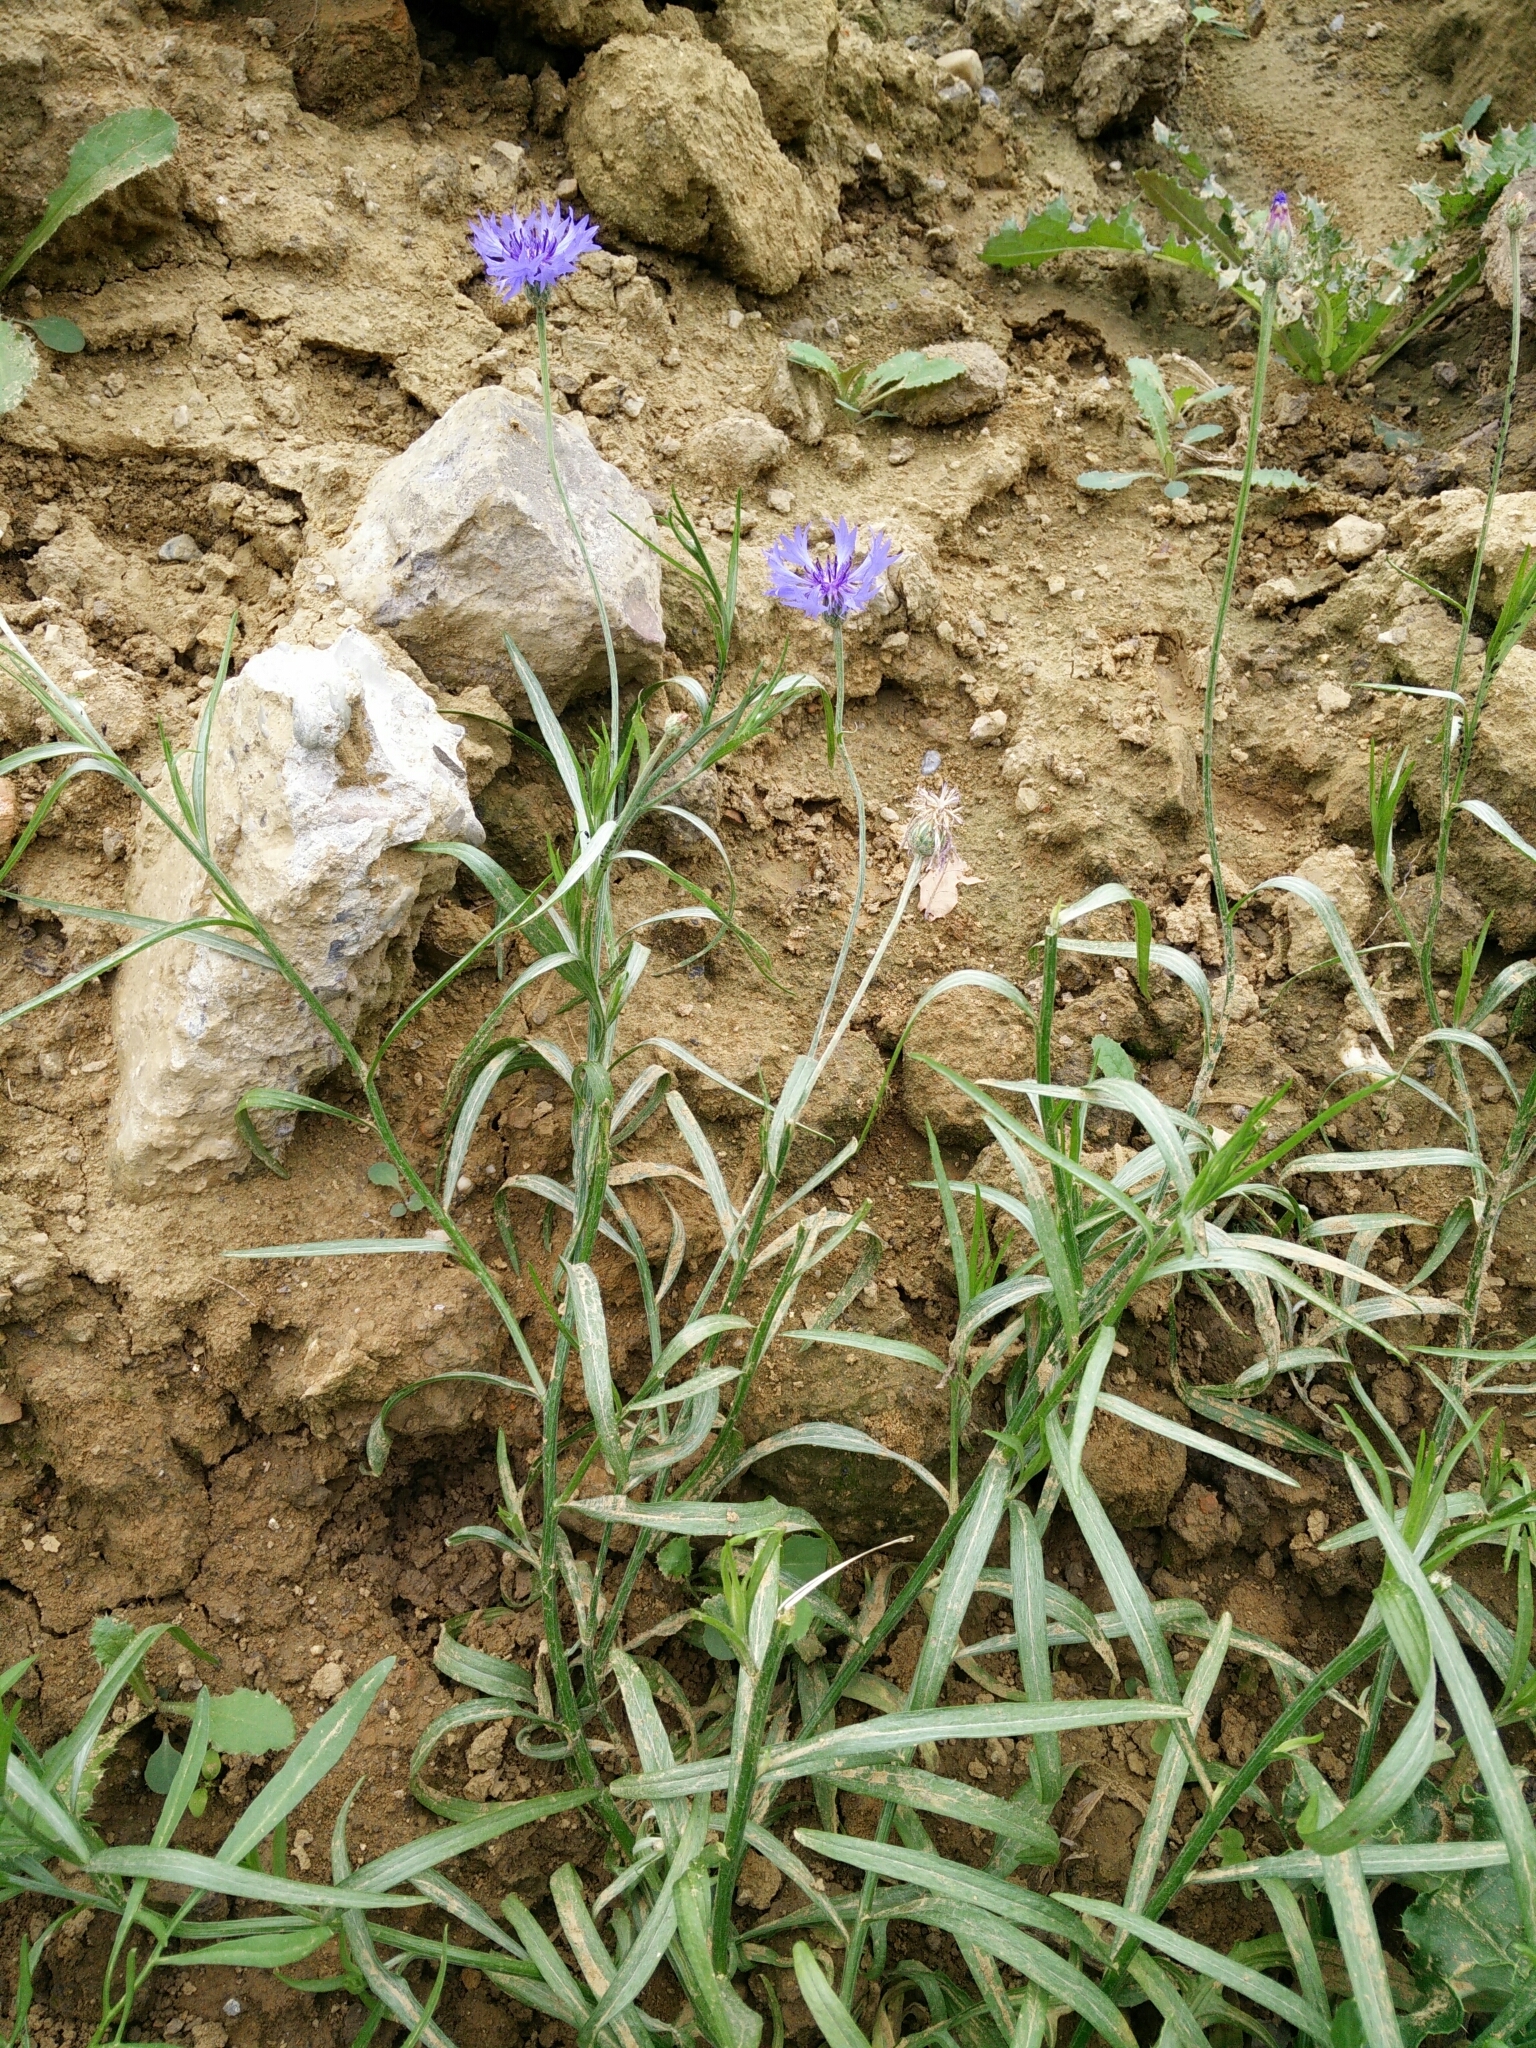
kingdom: Plantae
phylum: Tracheophyta
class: Magnoliopsida
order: Asterales
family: Asteraceae
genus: Centaurea
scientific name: Centaurea cyanus
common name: Cornflower
